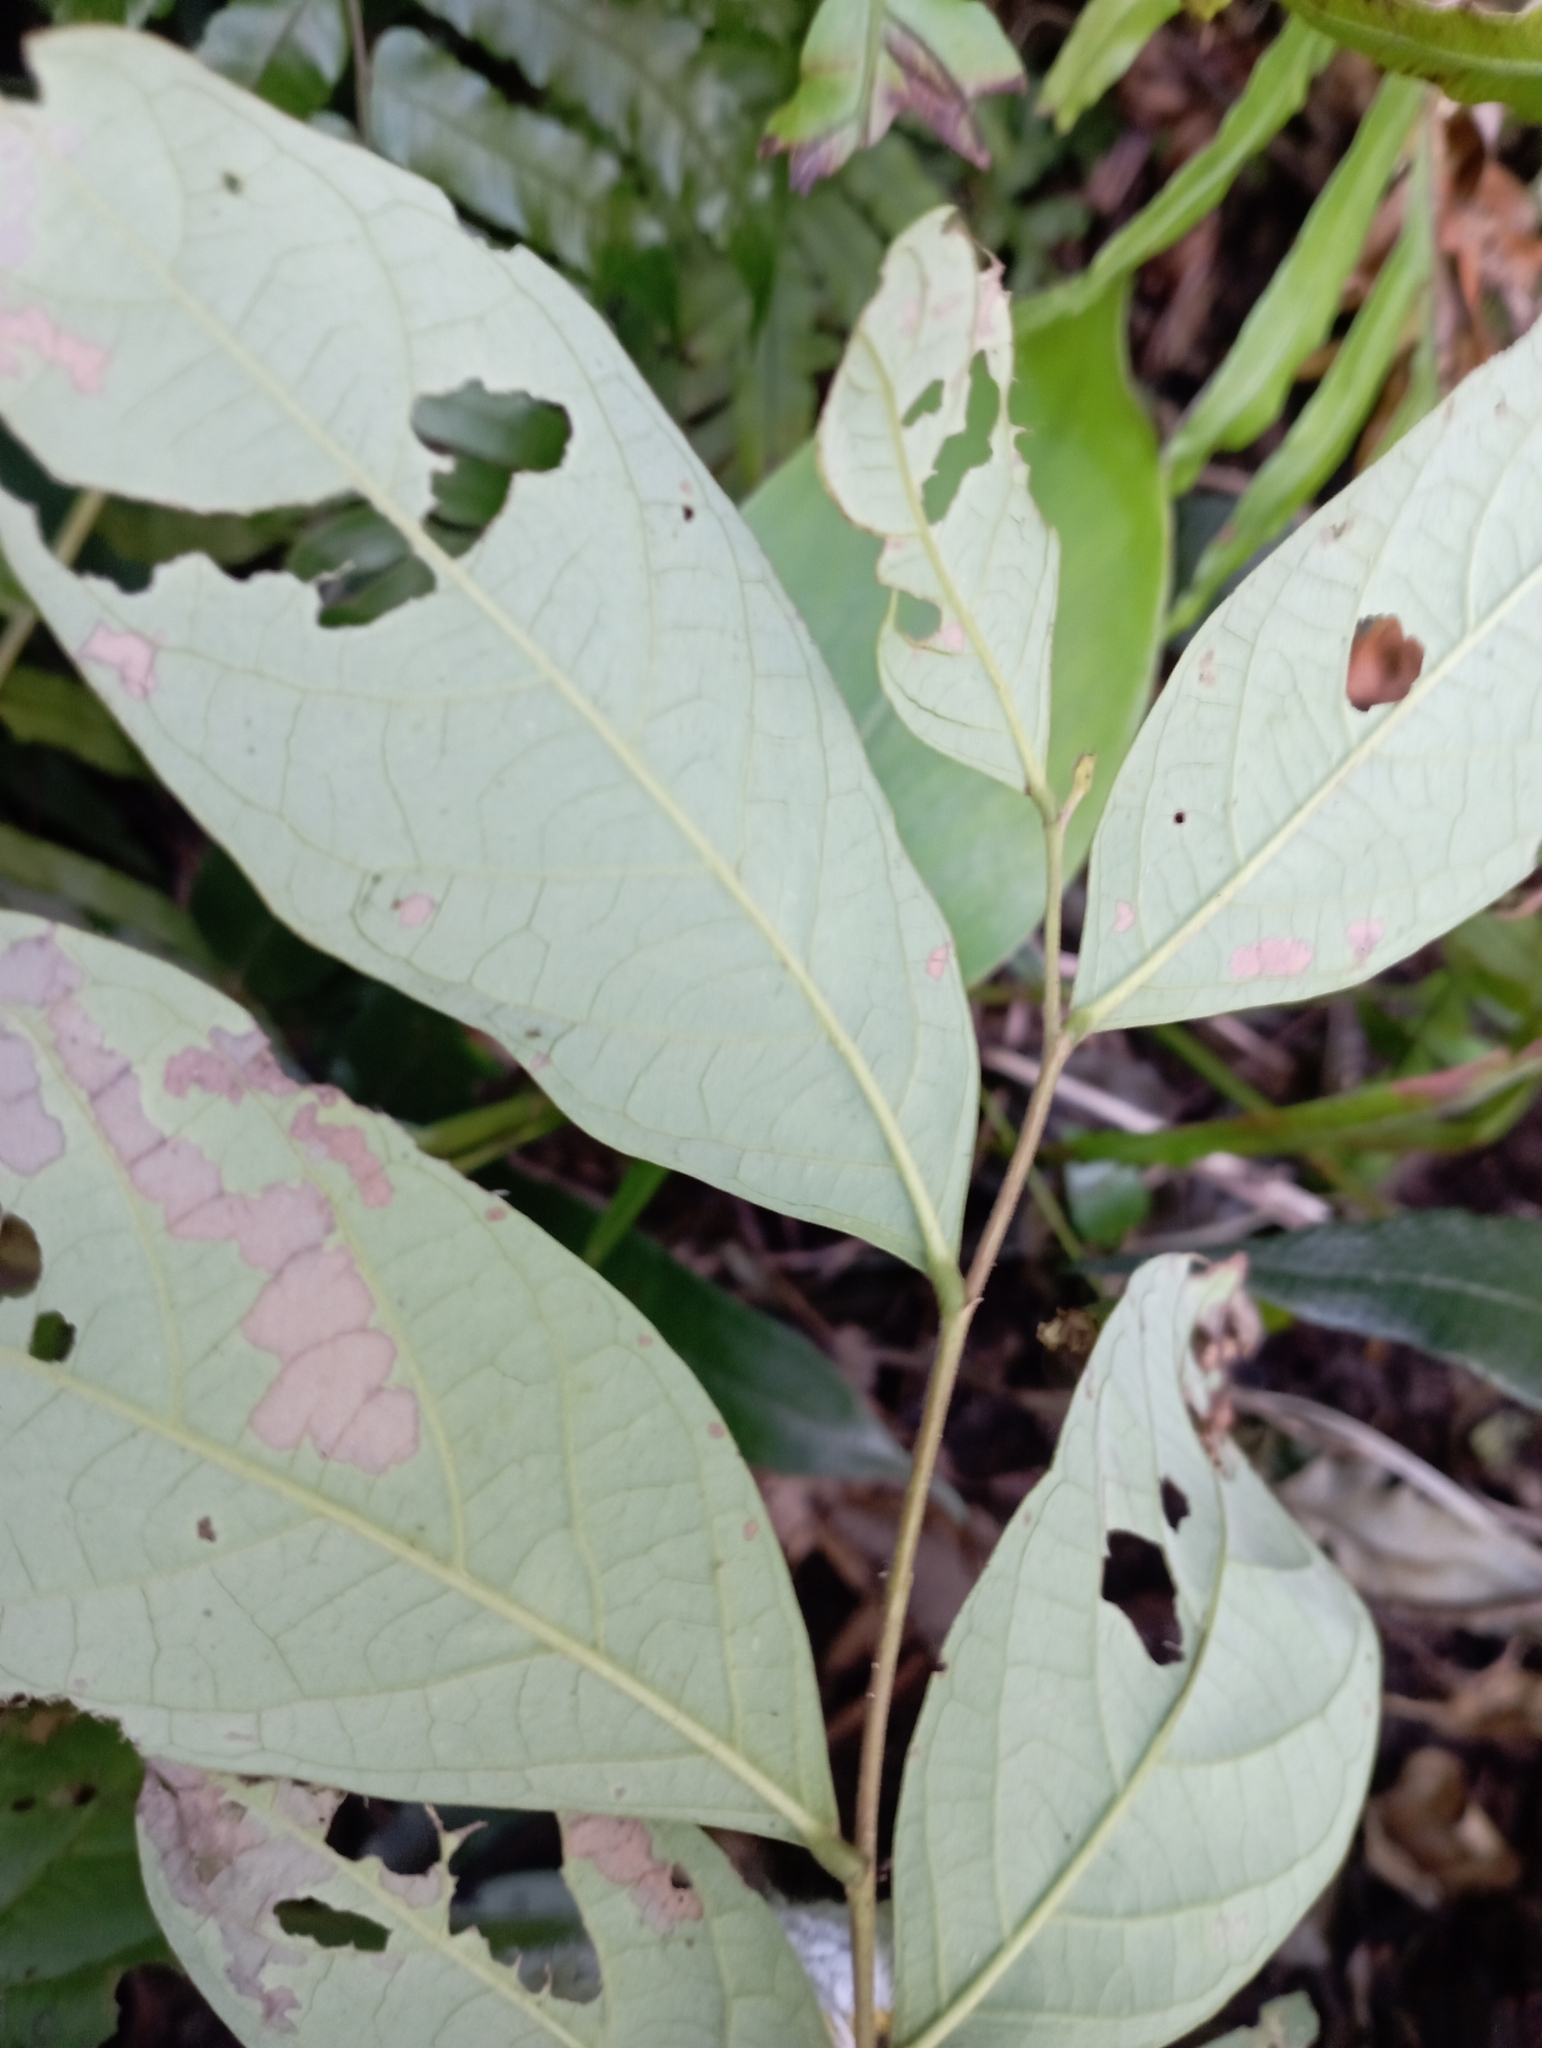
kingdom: Plantae
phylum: Tracheophyta
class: Magnoliopsida
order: Malpighiales
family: Phyllanthaceae
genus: Glochidion
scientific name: Glochidion zeylanicum
